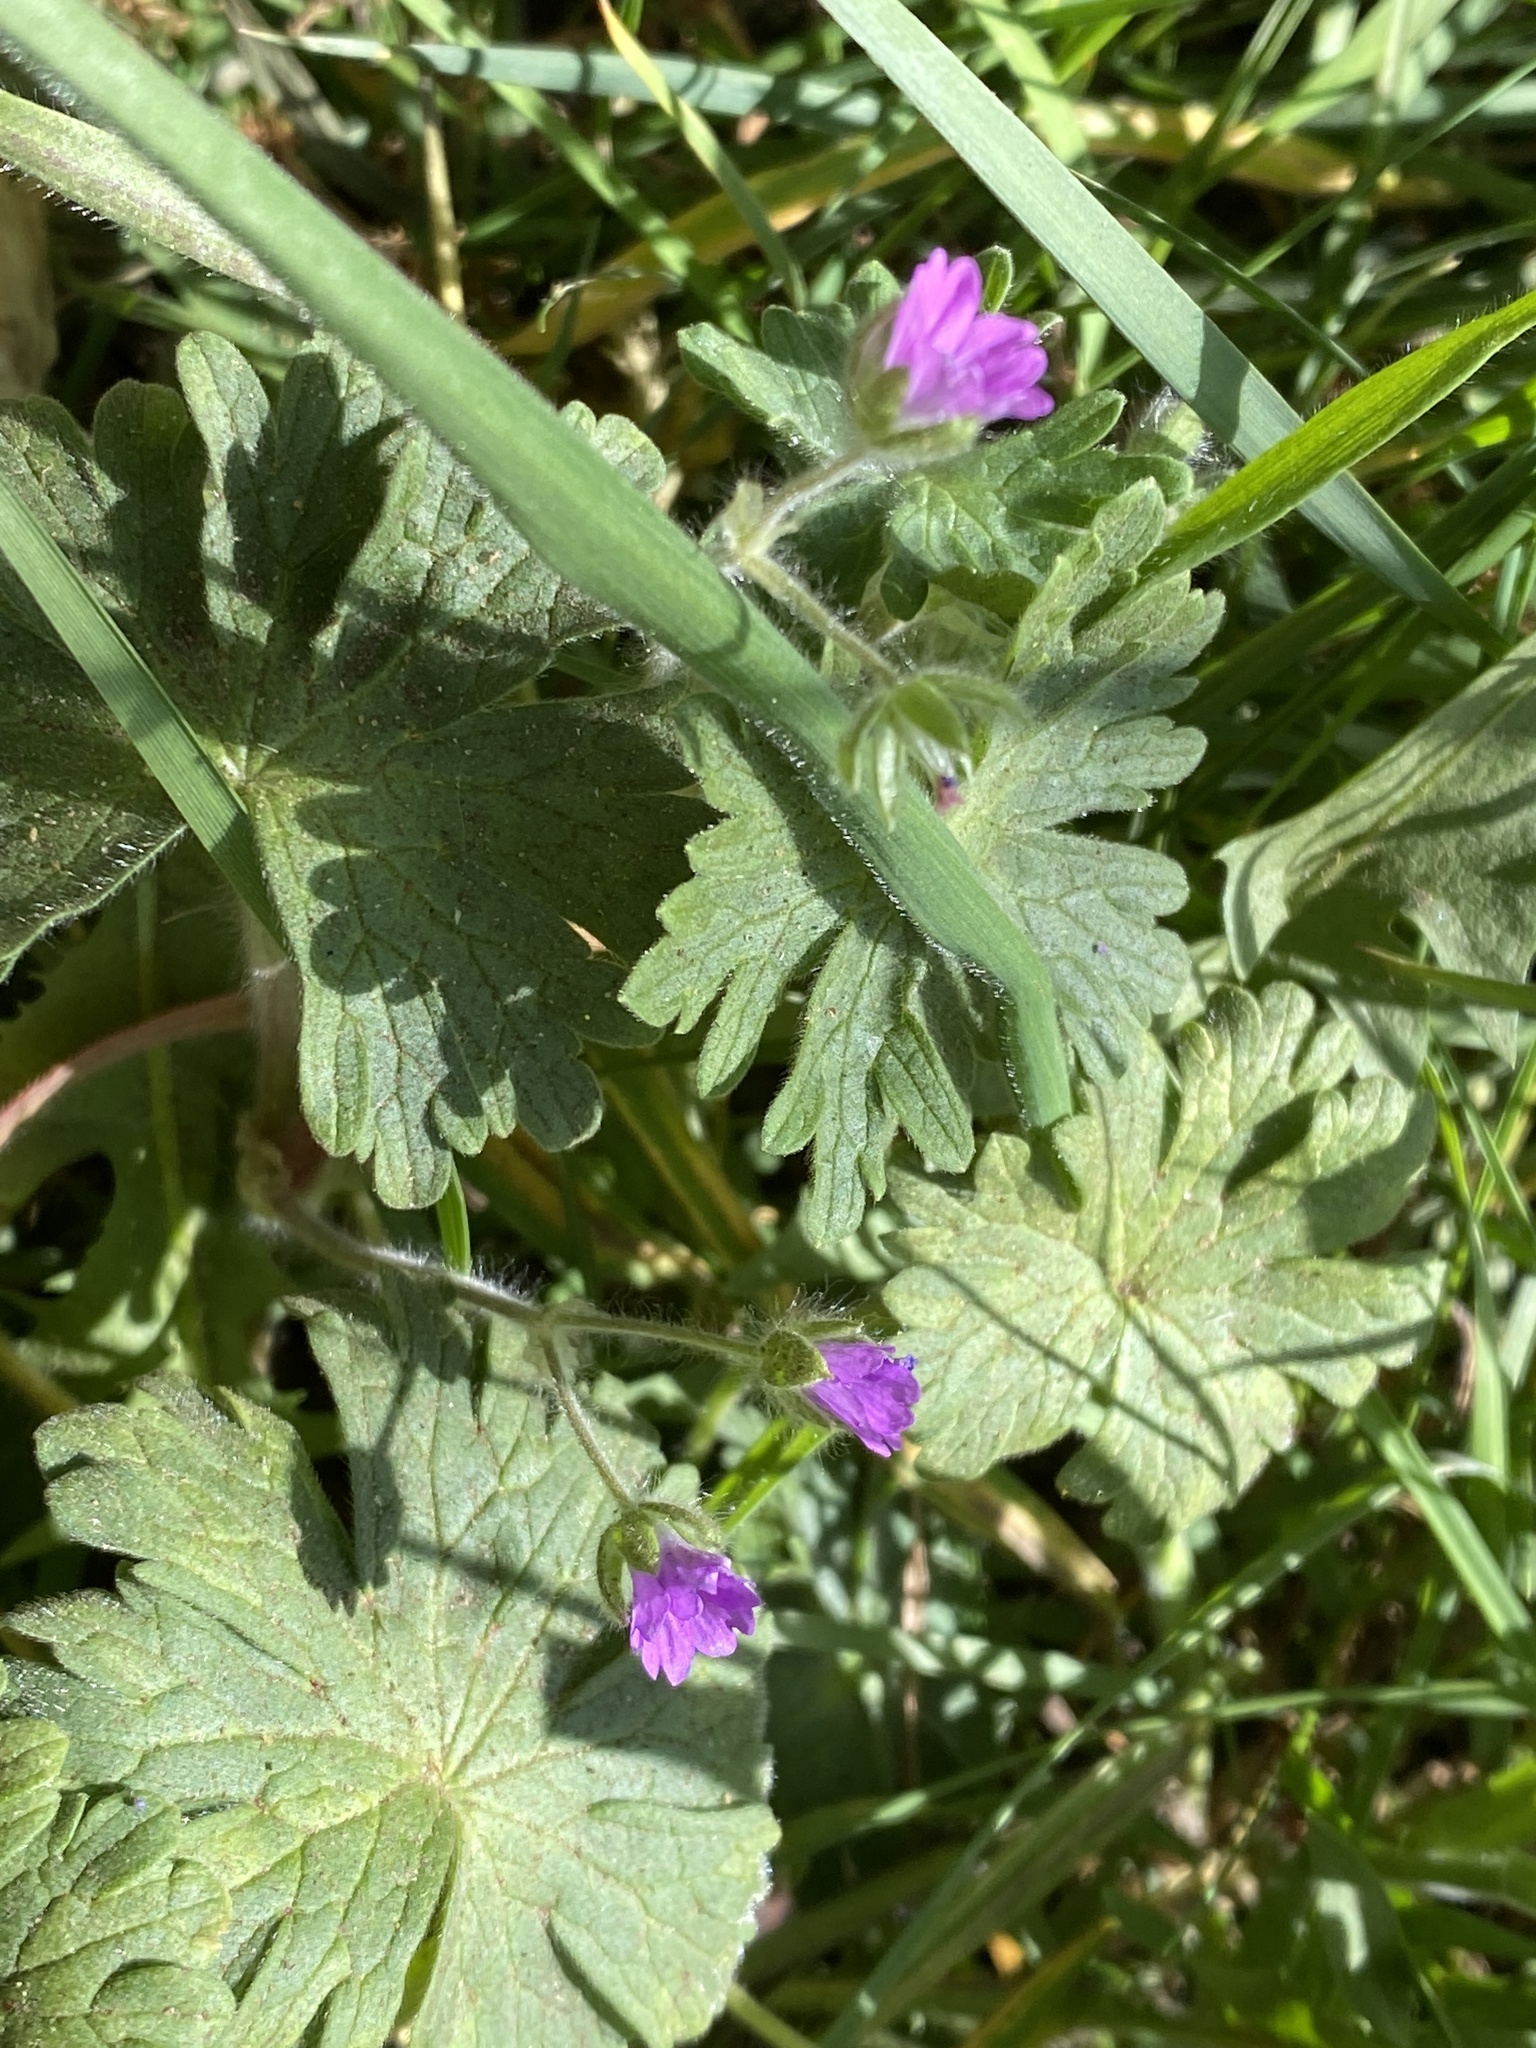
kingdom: Plantae
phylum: Tracheophyta
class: Magnoliopsida
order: Geraniales
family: Geraniaceae
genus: Geranium
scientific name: Geranium molle
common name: Dove's-foot crane's-bill
